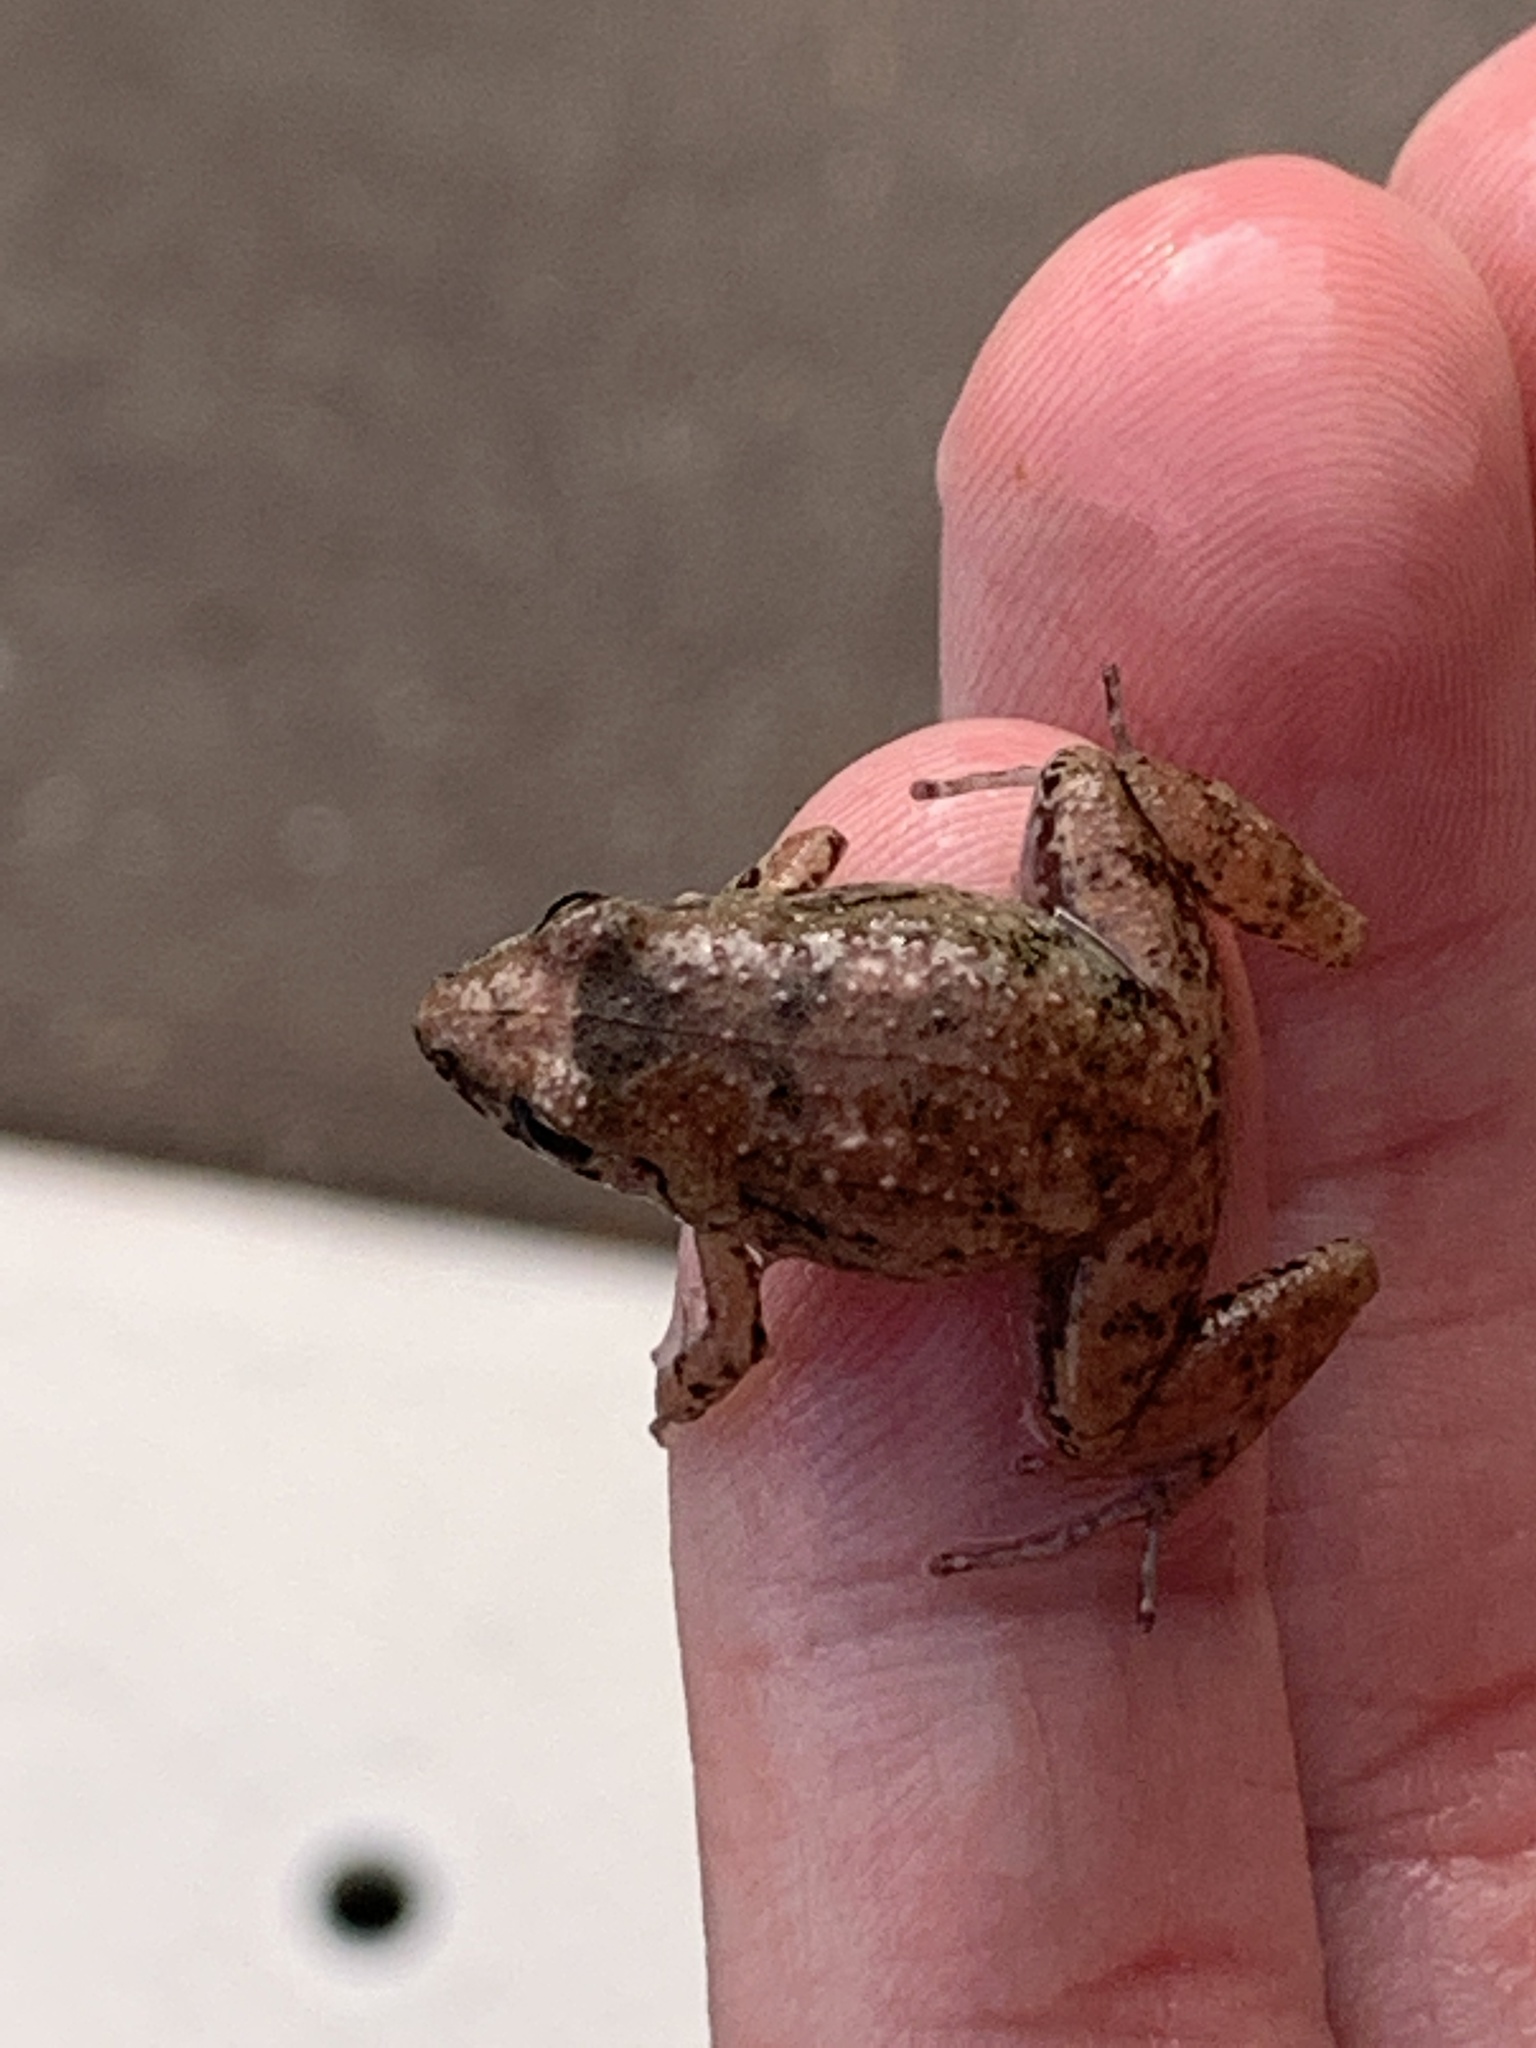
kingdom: Animalia
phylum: Chordata
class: Amphibia
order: Anura
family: Eleutherodactylidae
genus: Eleutherodactylus
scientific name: Eleutherodactylus planirostris
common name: Greenhouse frog
